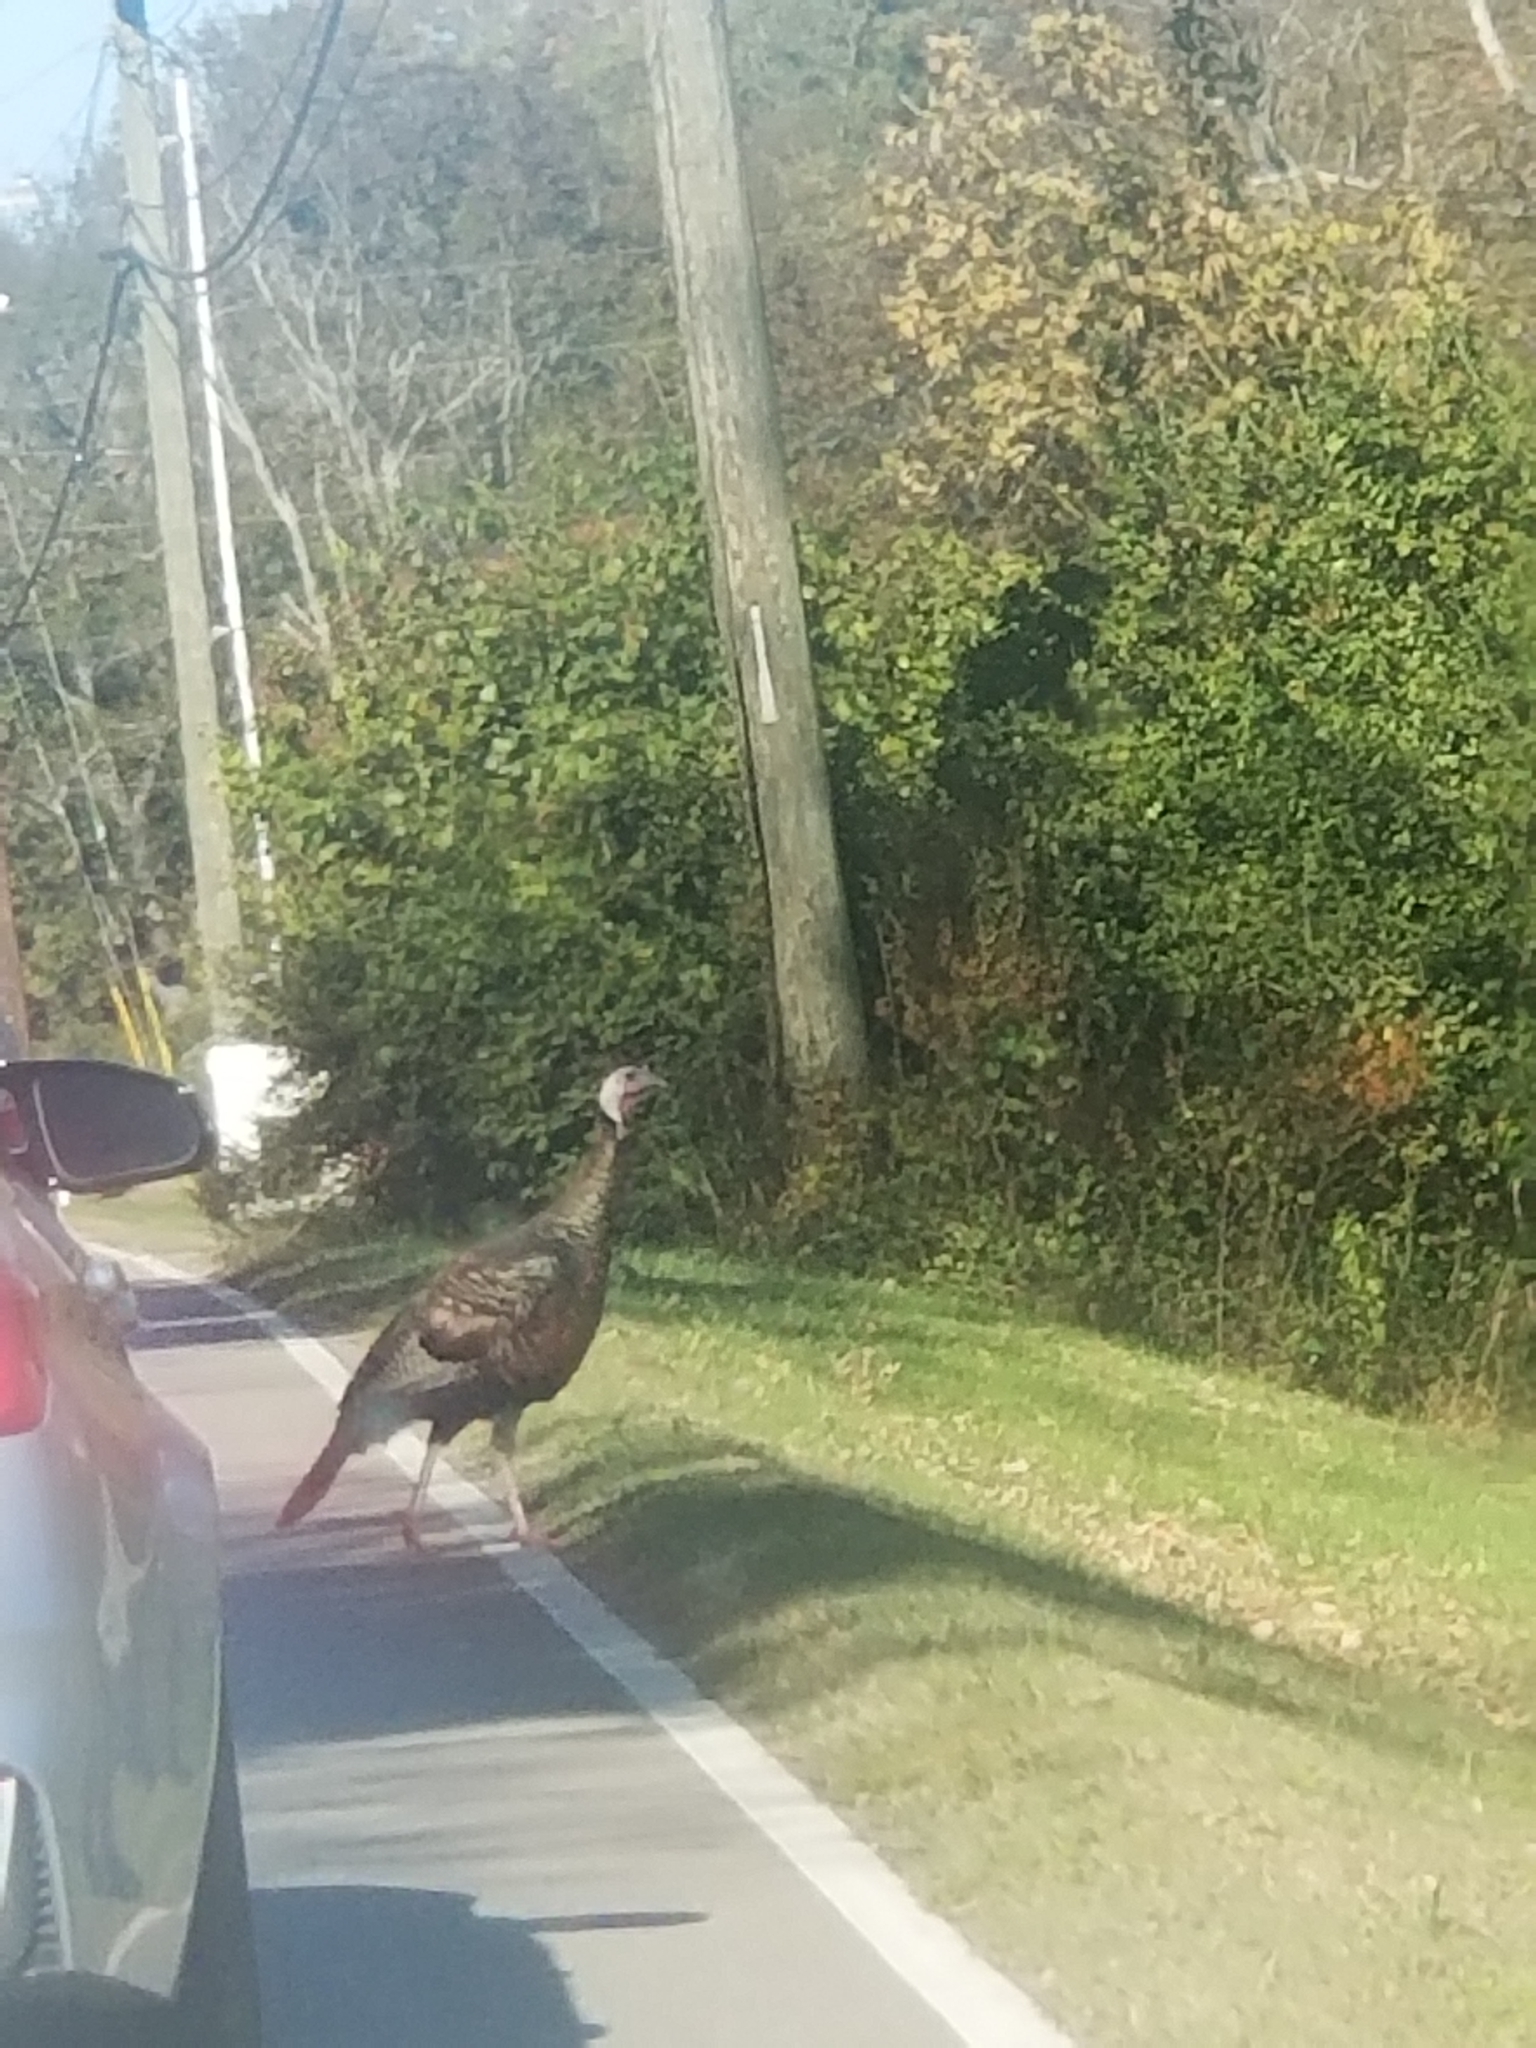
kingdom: Animalia
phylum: Chordata
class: Aves
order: Galliformes
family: Phasianidae
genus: Meleagris
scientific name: Meleagris gallopavo
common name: Wild turkey
